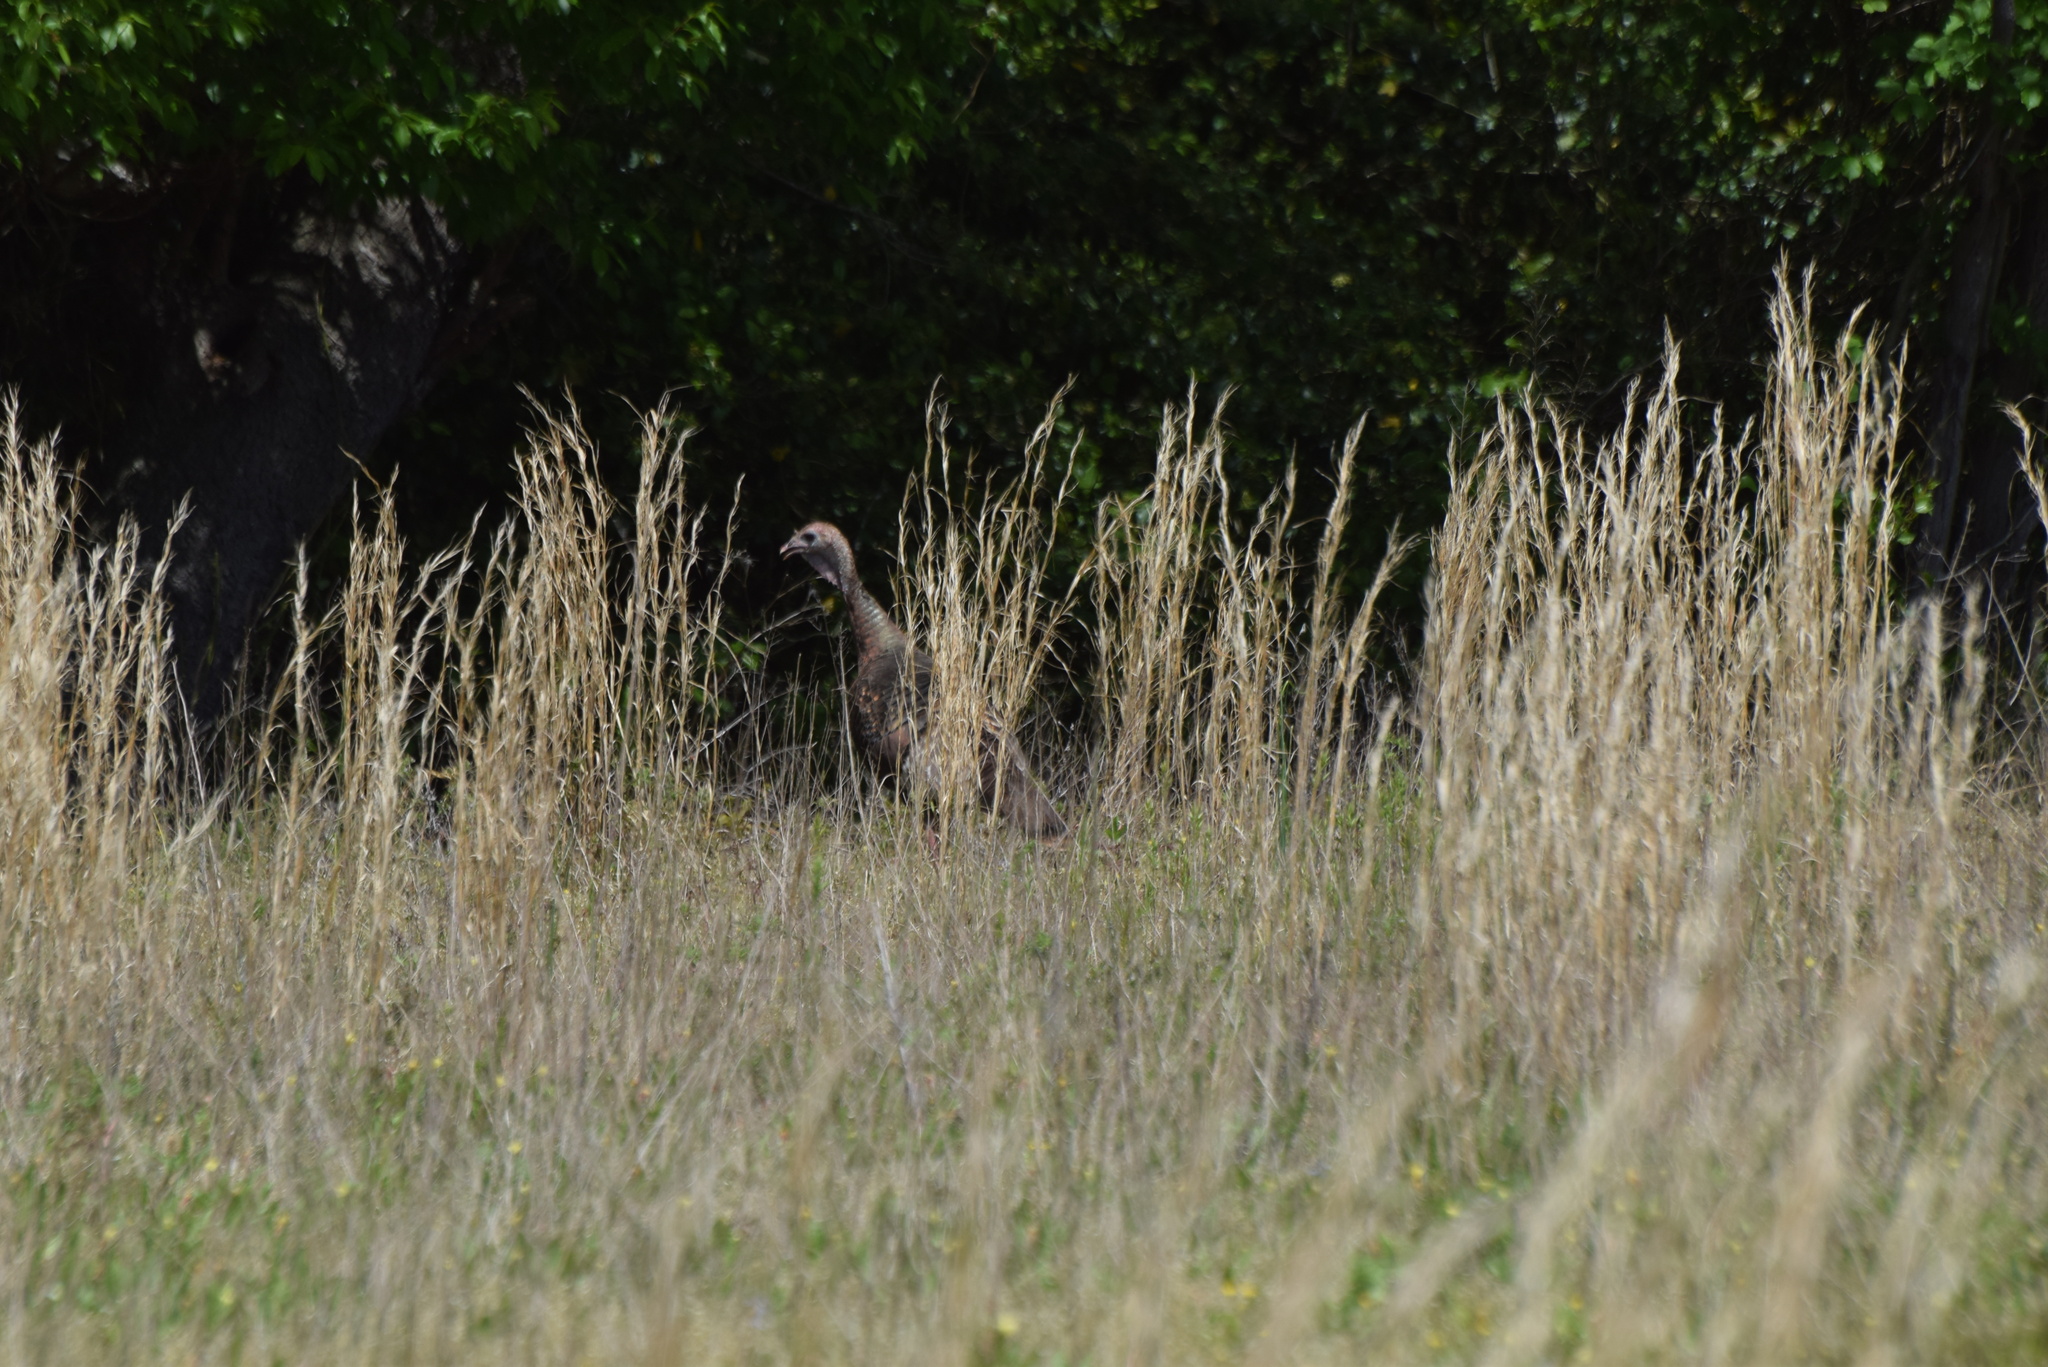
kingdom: Animalia
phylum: Chordata
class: Aves
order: Galliformes
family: Phasianidae
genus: Meleagris
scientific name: Meleagris gallopavo
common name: Wild turkey
